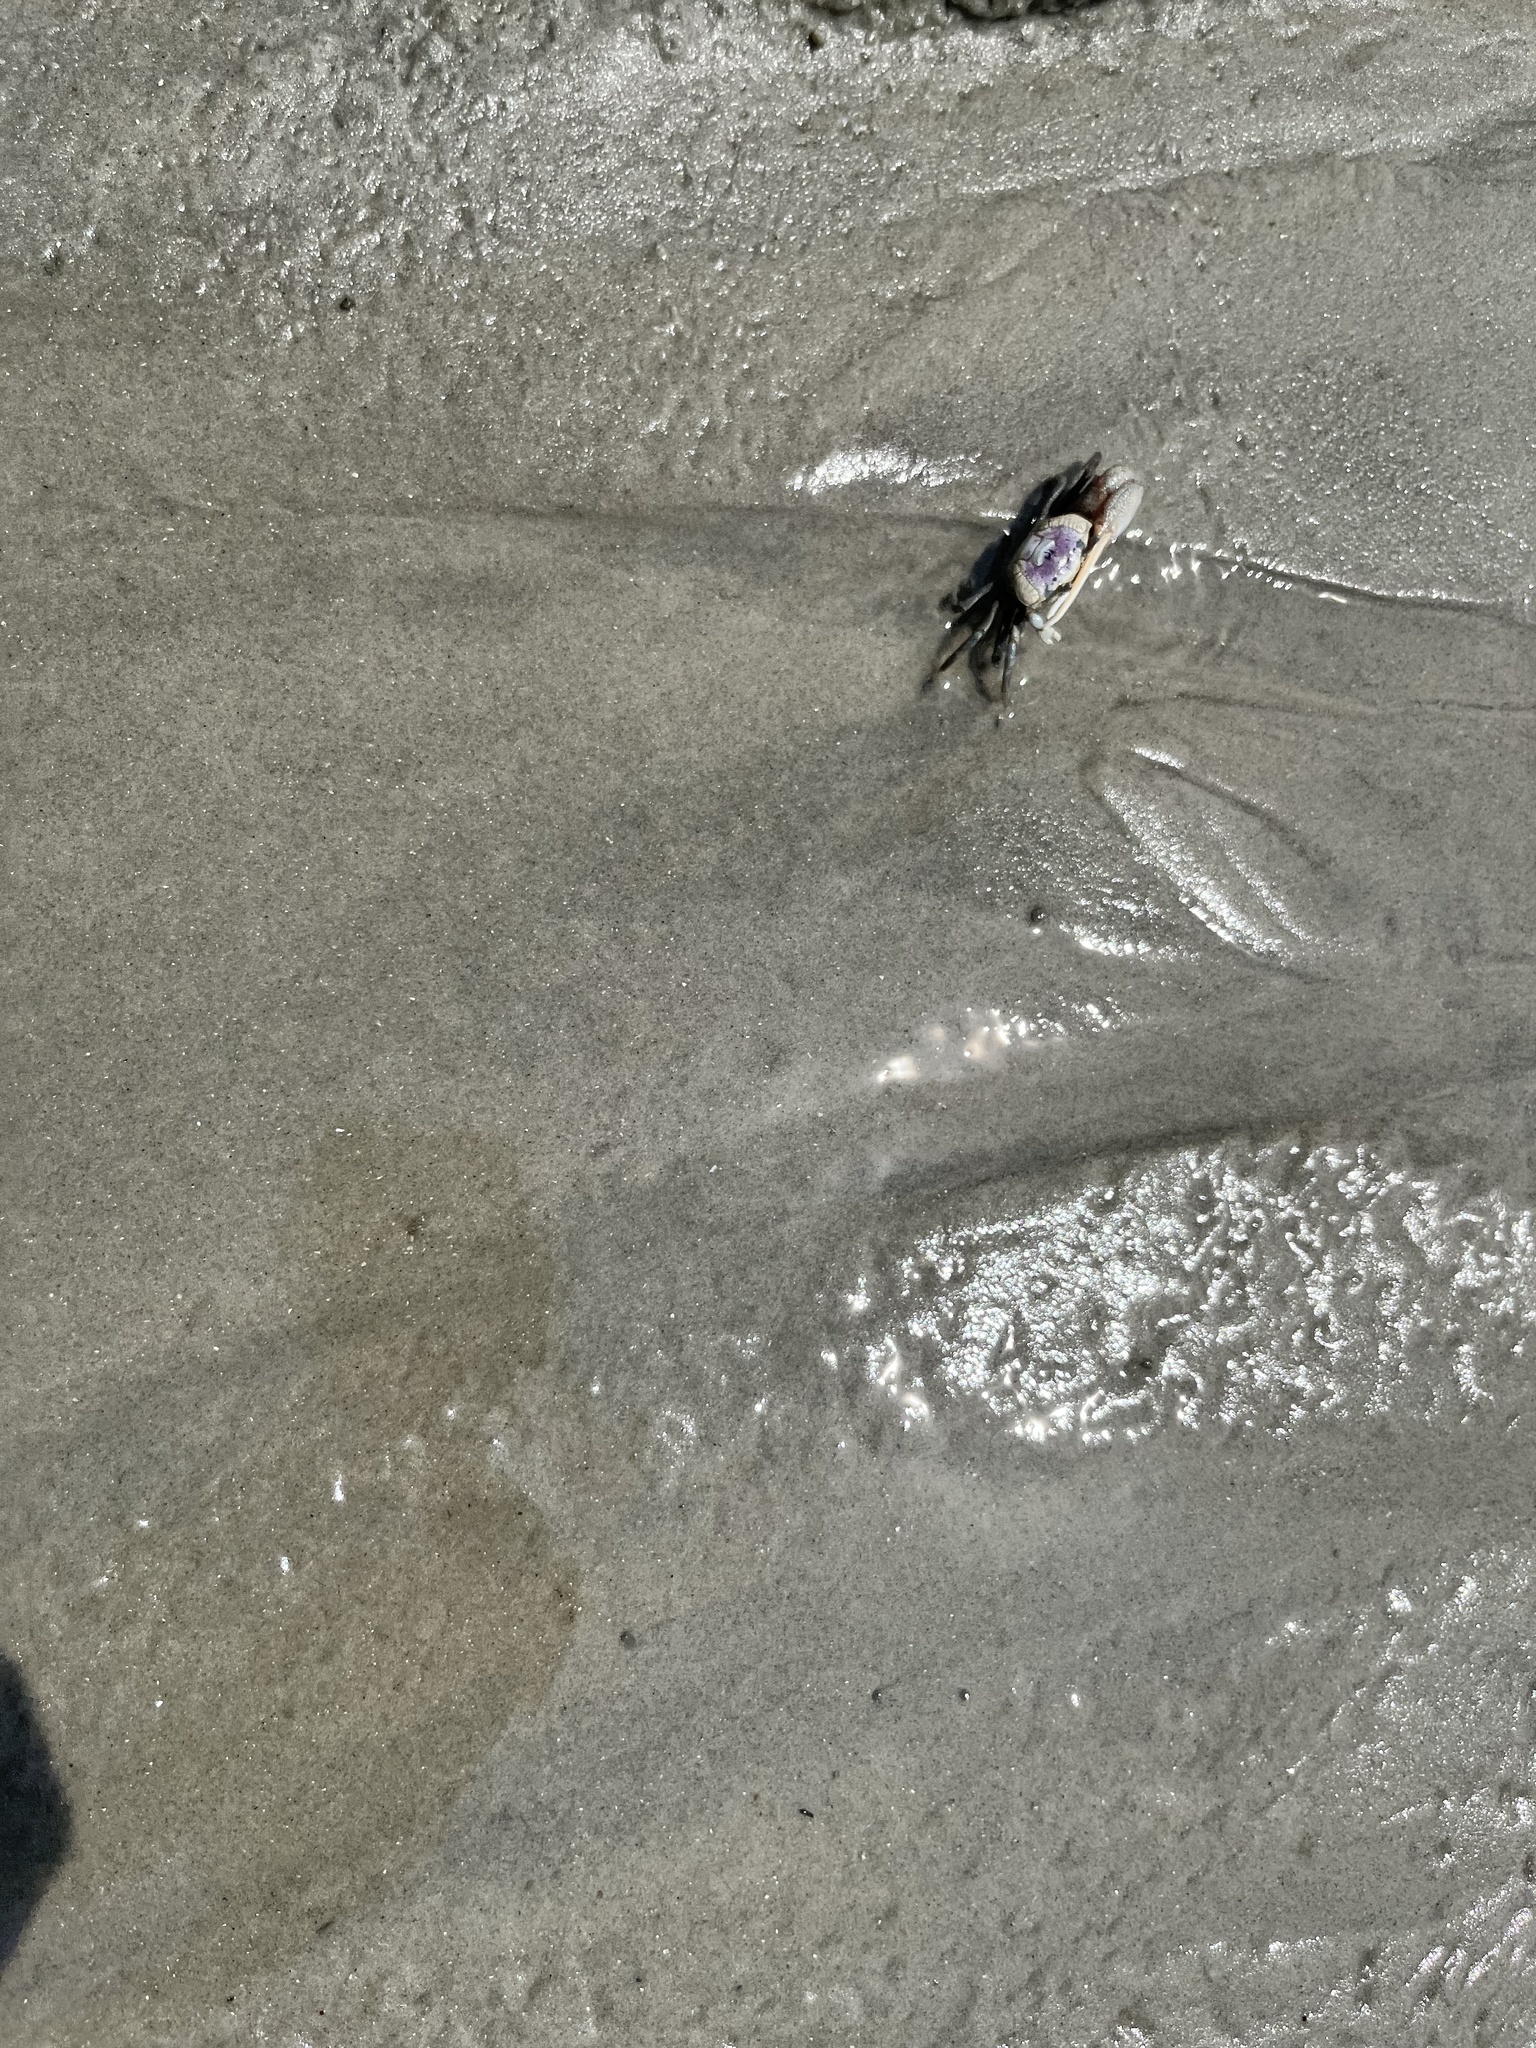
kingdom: Animalia
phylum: Arthropoda
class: Malacostraca
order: Decapoda
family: Ocypodidae
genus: Leptuca
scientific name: Leptuca pugilator
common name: Atlantic sand fiddler crab
